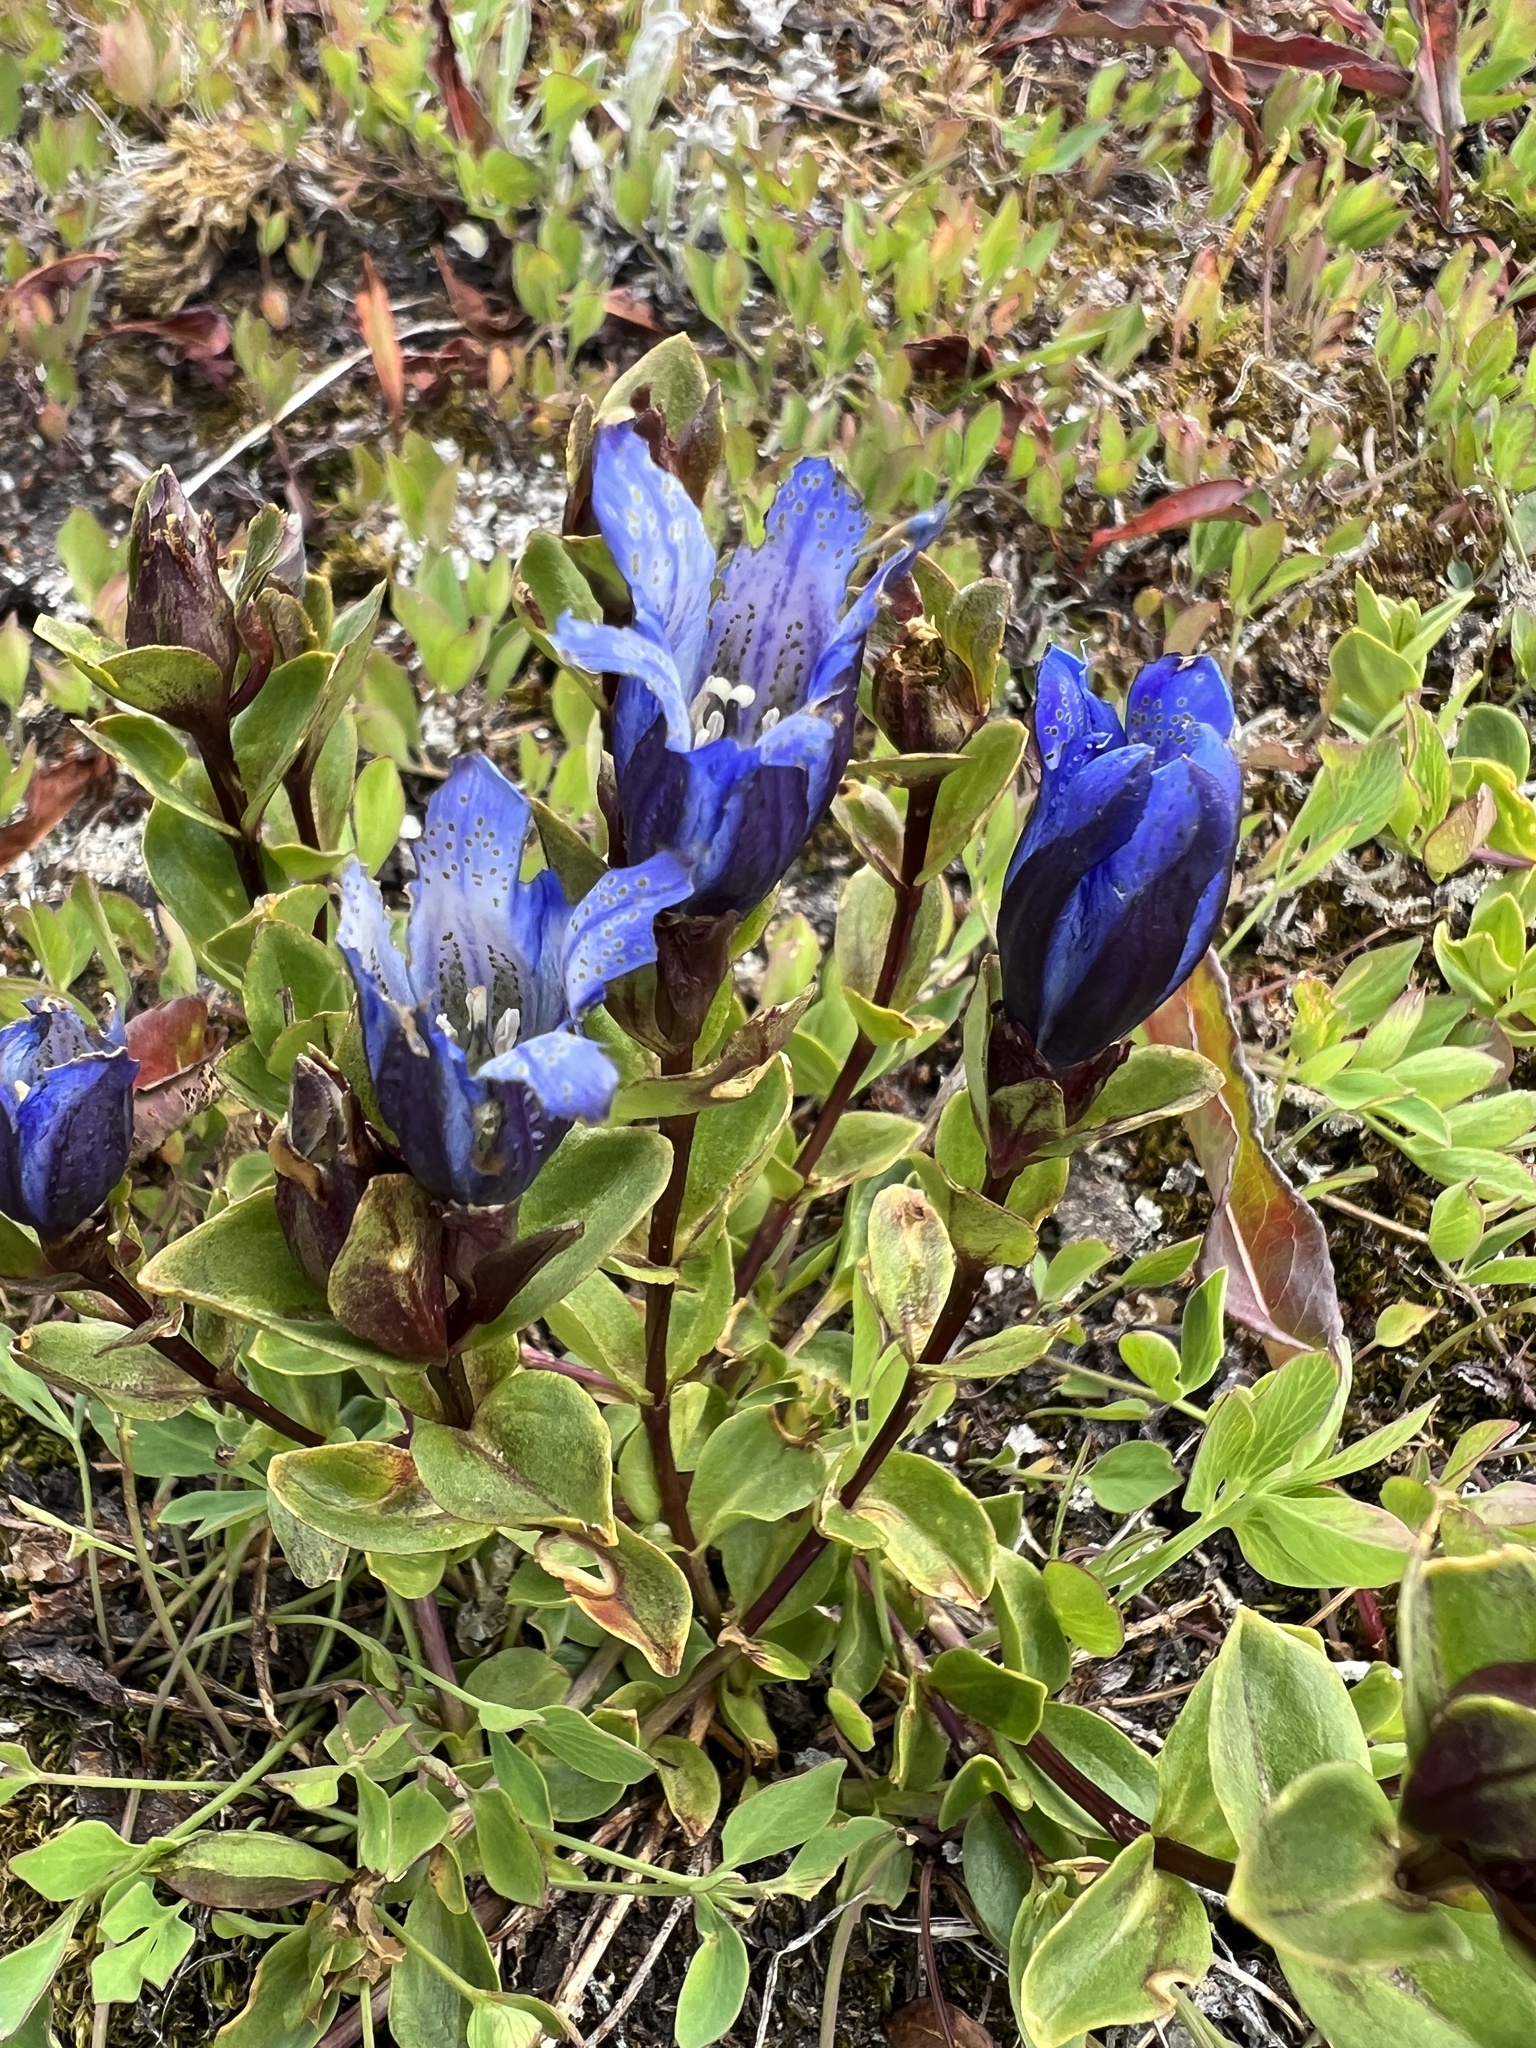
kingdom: Plantae
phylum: Tracheophyta
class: Magnoliopsida
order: Gentianales
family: Gentianaceae
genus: Gentiana
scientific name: Gentiana calycosa
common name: Rainier pleated gentian
